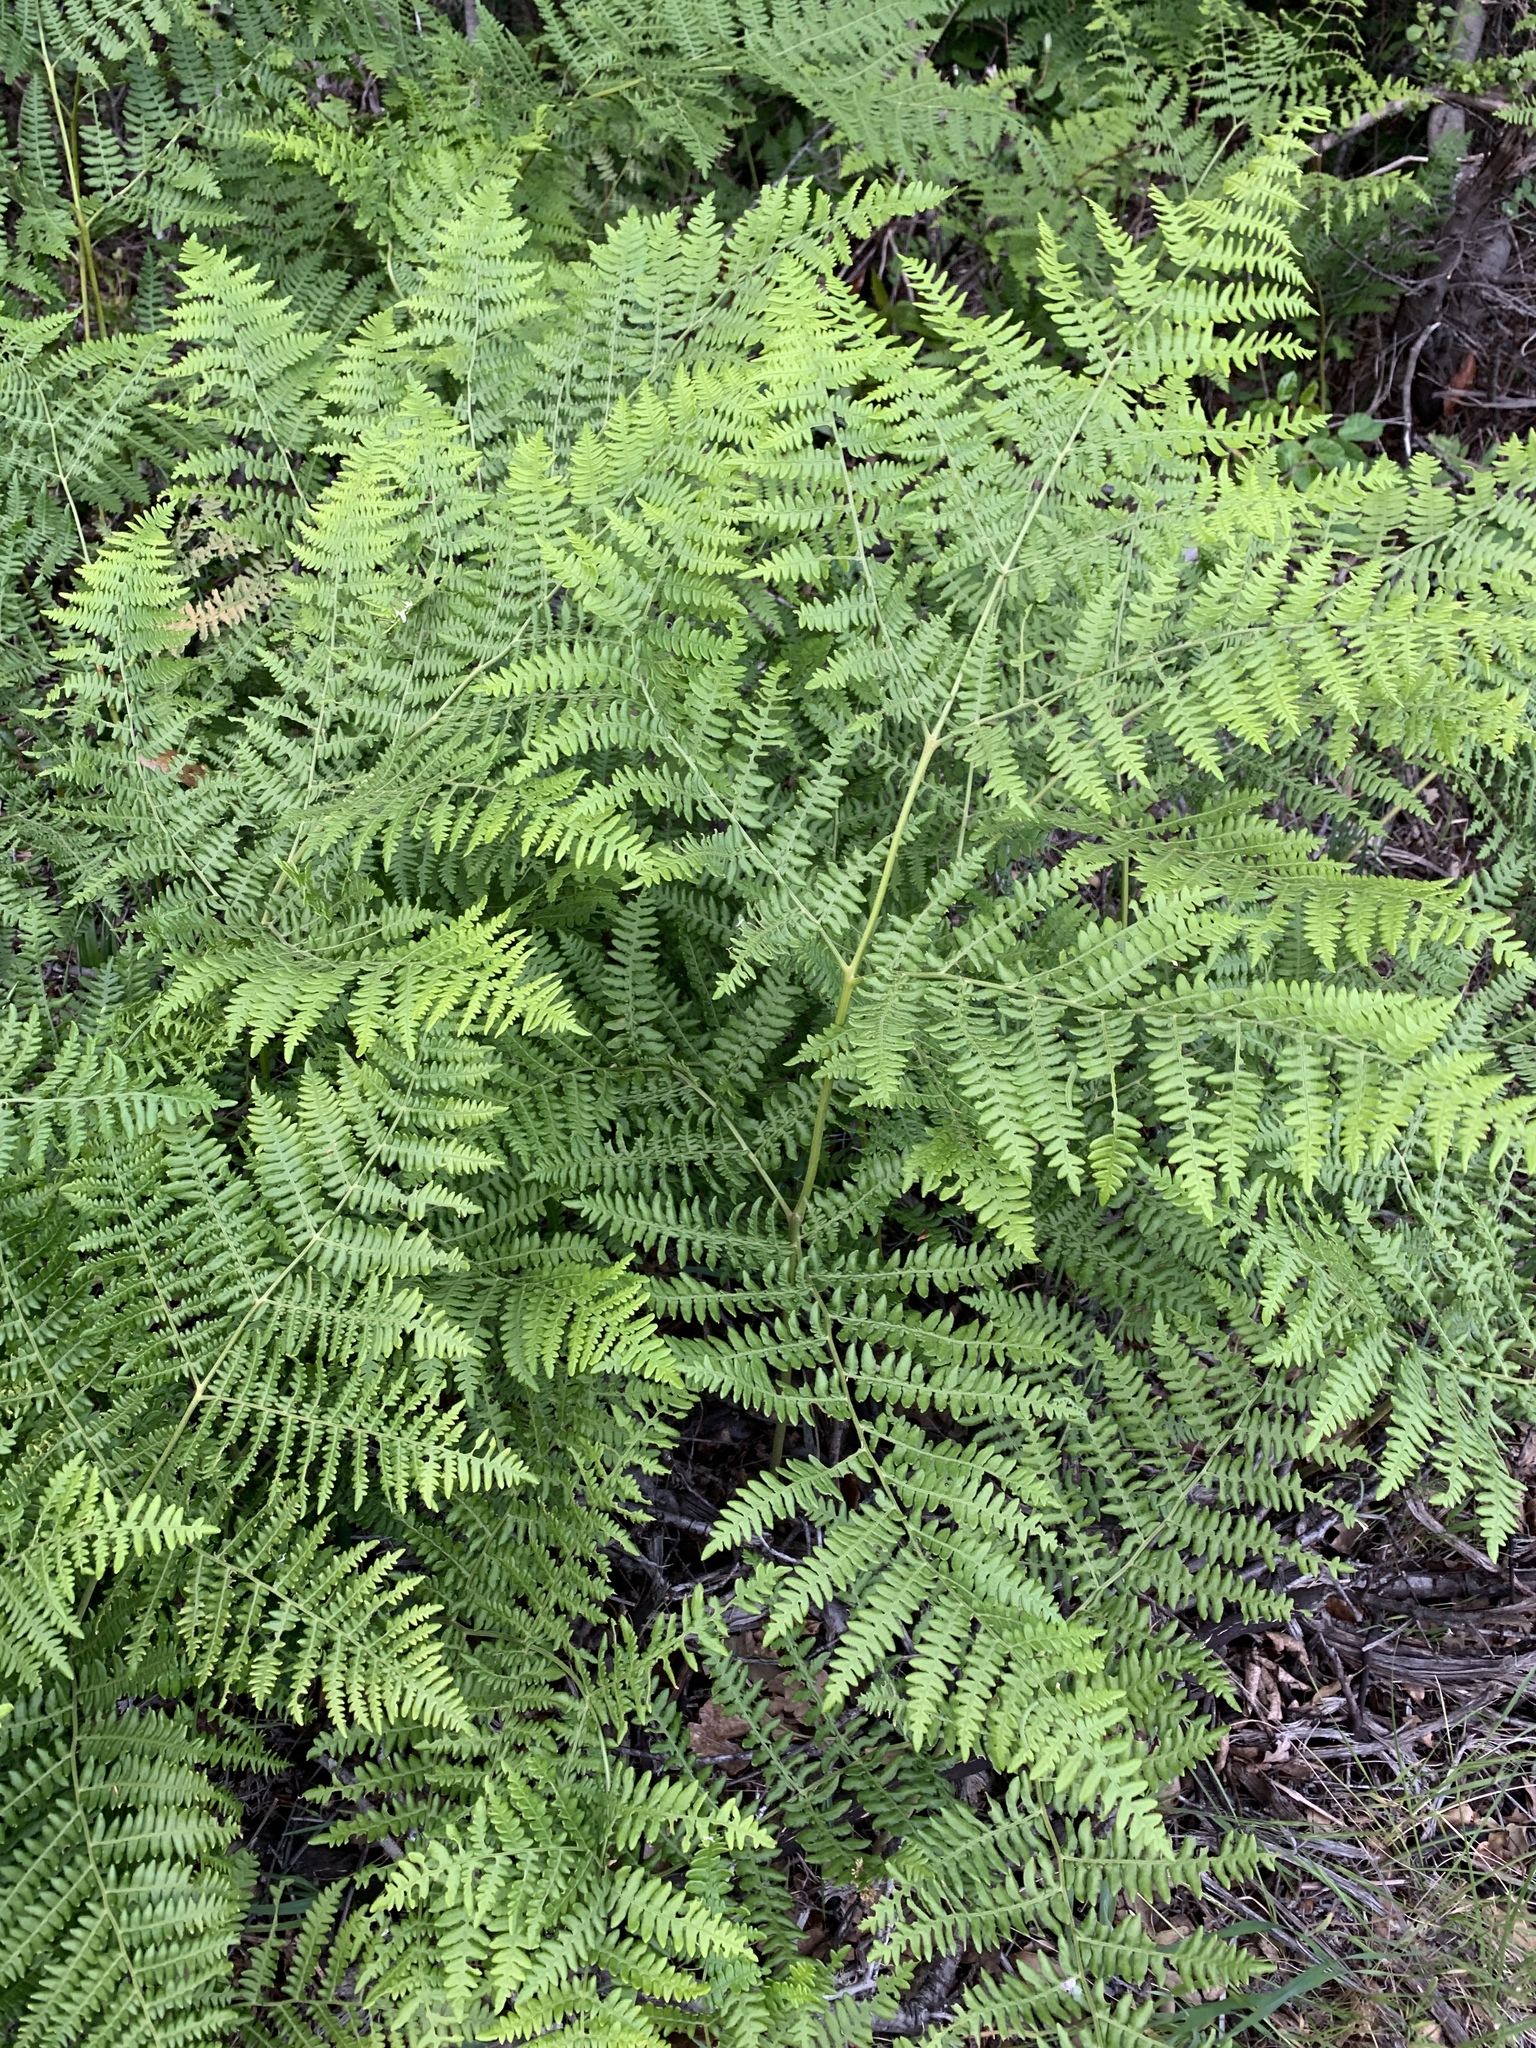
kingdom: Plantae
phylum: Tracheophyta
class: Polypodiopsida
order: Polypodiales
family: Dennstaedtiaceae
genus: Pteridium
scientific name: Pteridium aquilinum
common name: Bracken
